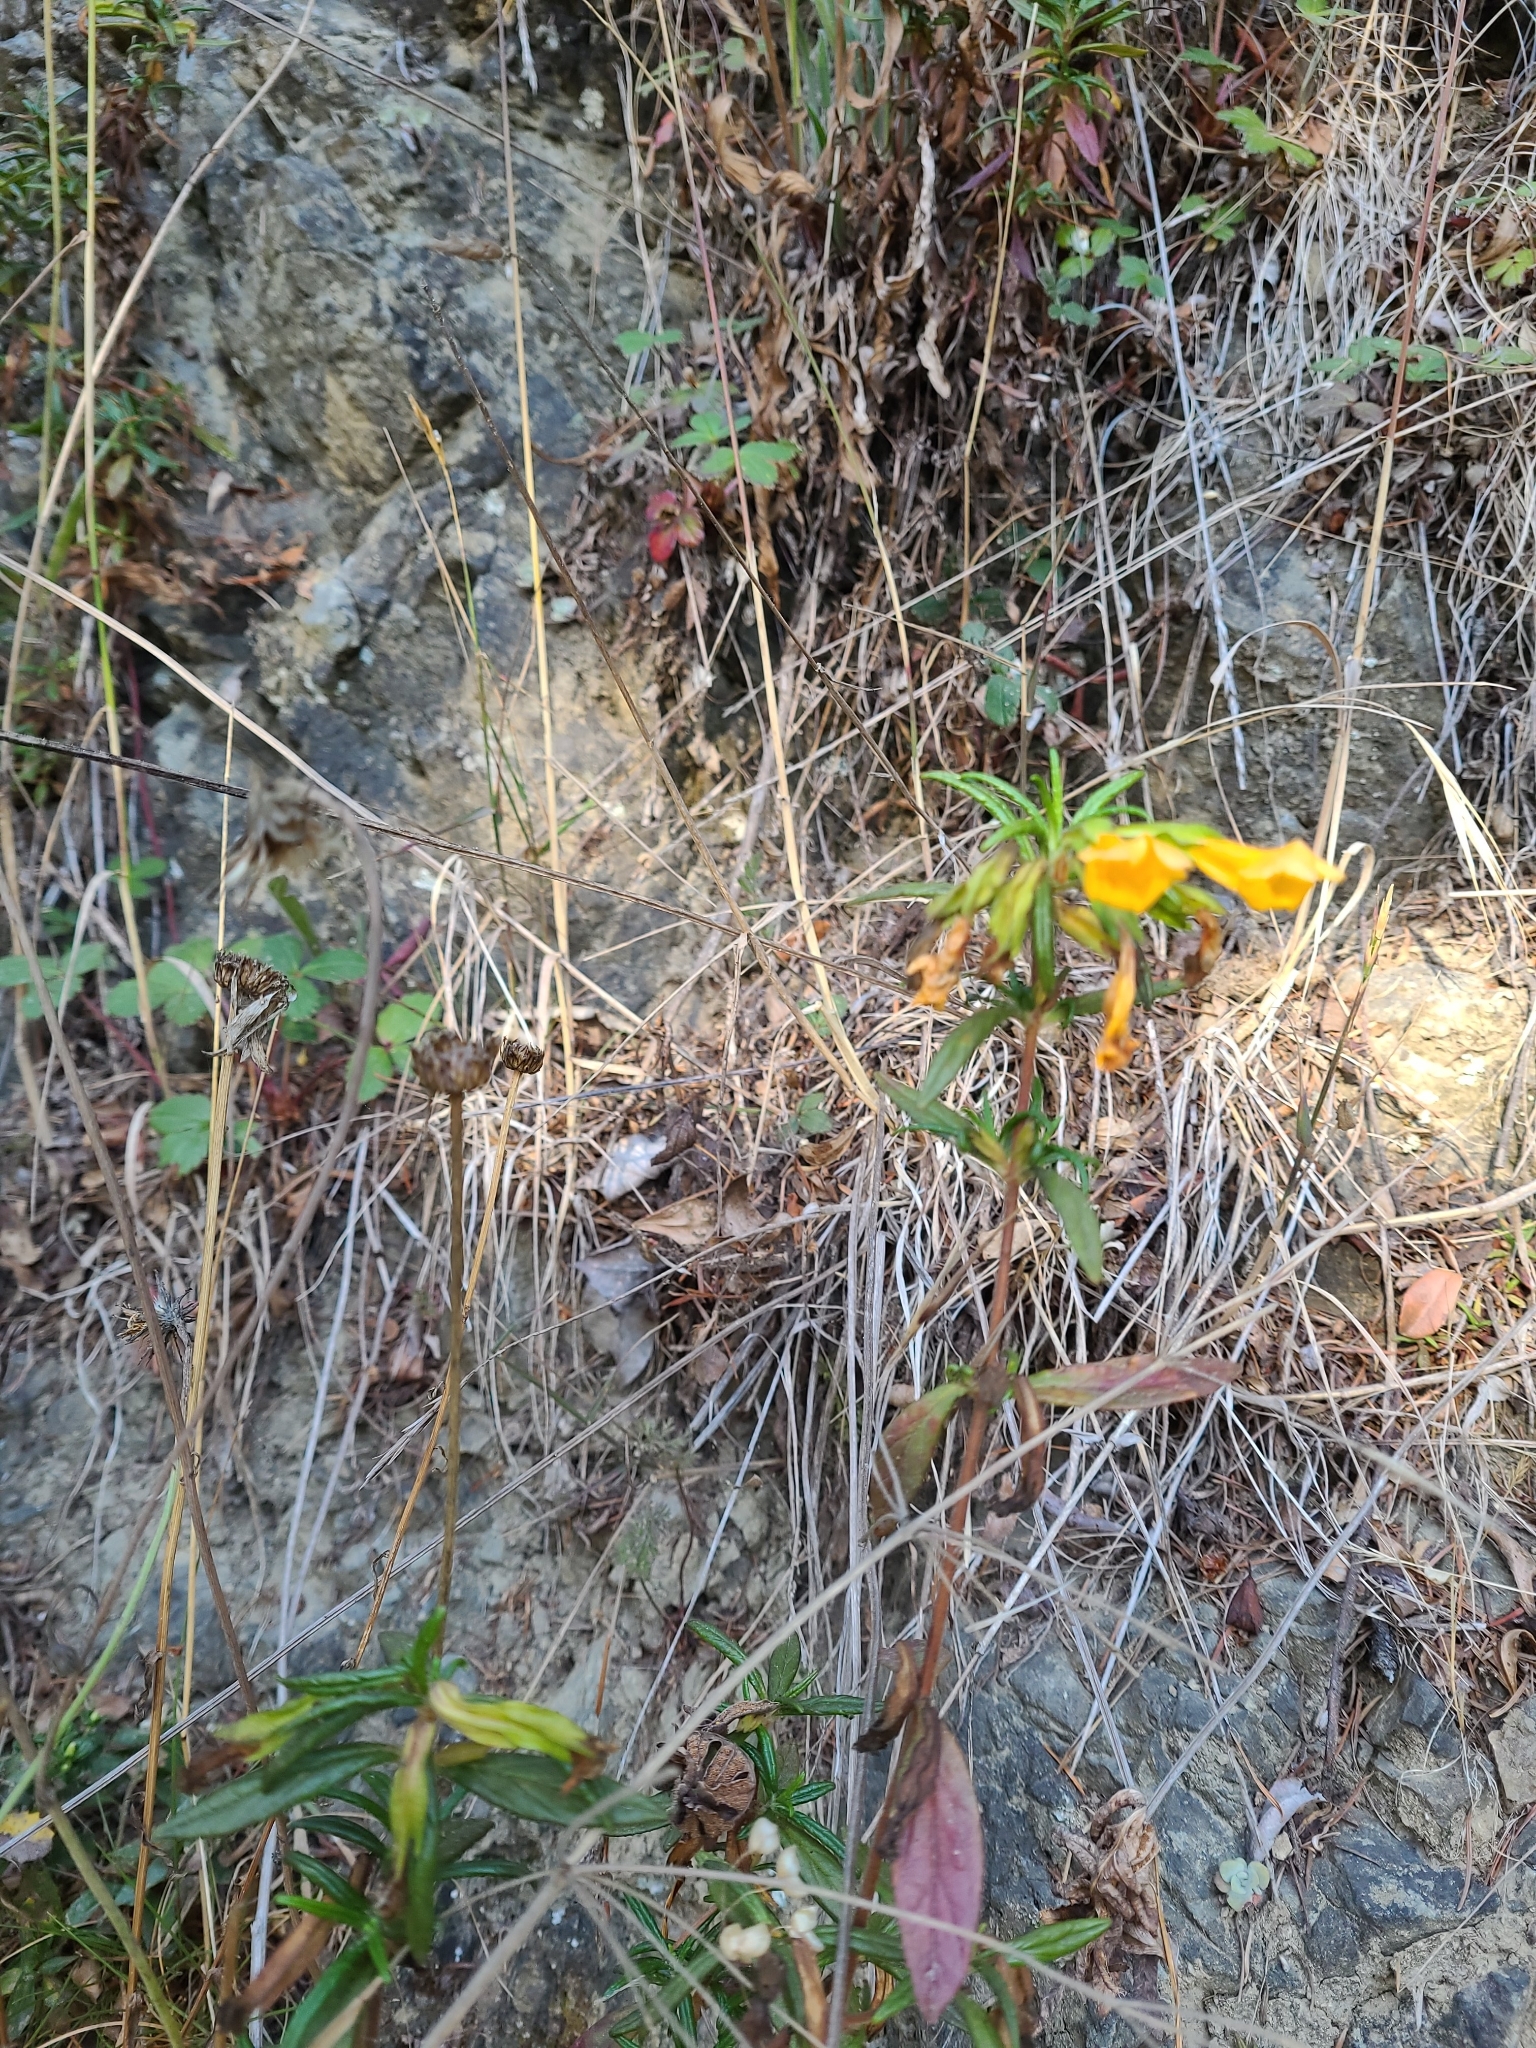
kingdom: Plantae
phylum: Tracheophyta
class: Magnoliopsida
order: Lamiales
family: Phrymaceae
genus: Diplacus
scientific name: Diplacus aurantiacus
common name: Bush monkey-flower
